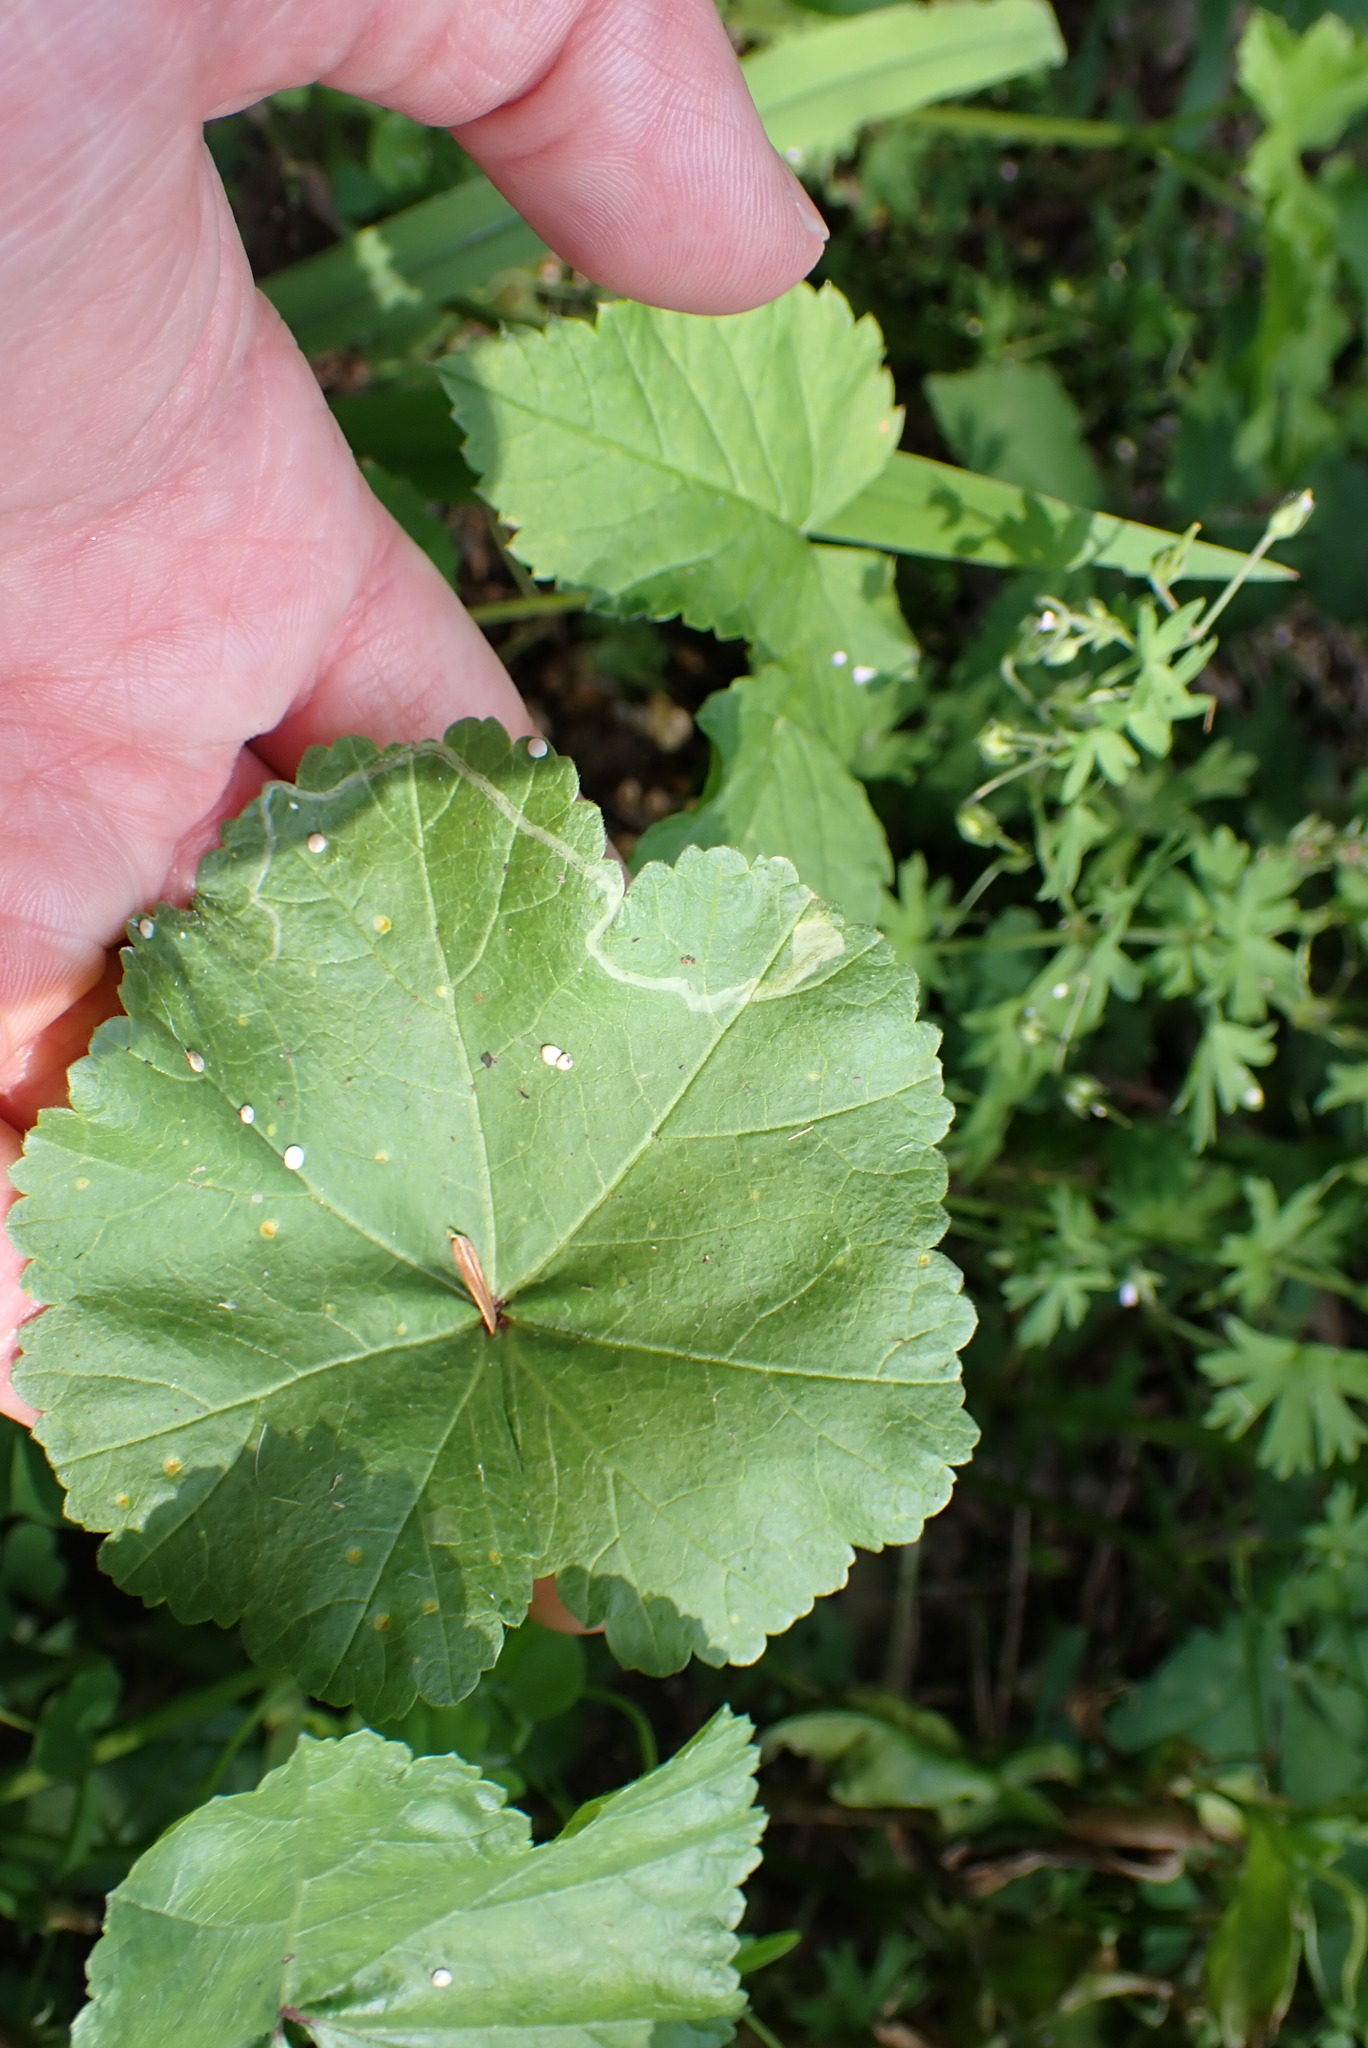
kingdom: Animalia
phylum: Arthropoda
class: Insecta
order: Diptera
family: Agromyzidae
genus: Calycomyza
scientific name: Calycomyza malvae
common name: Mallow leaf miner
